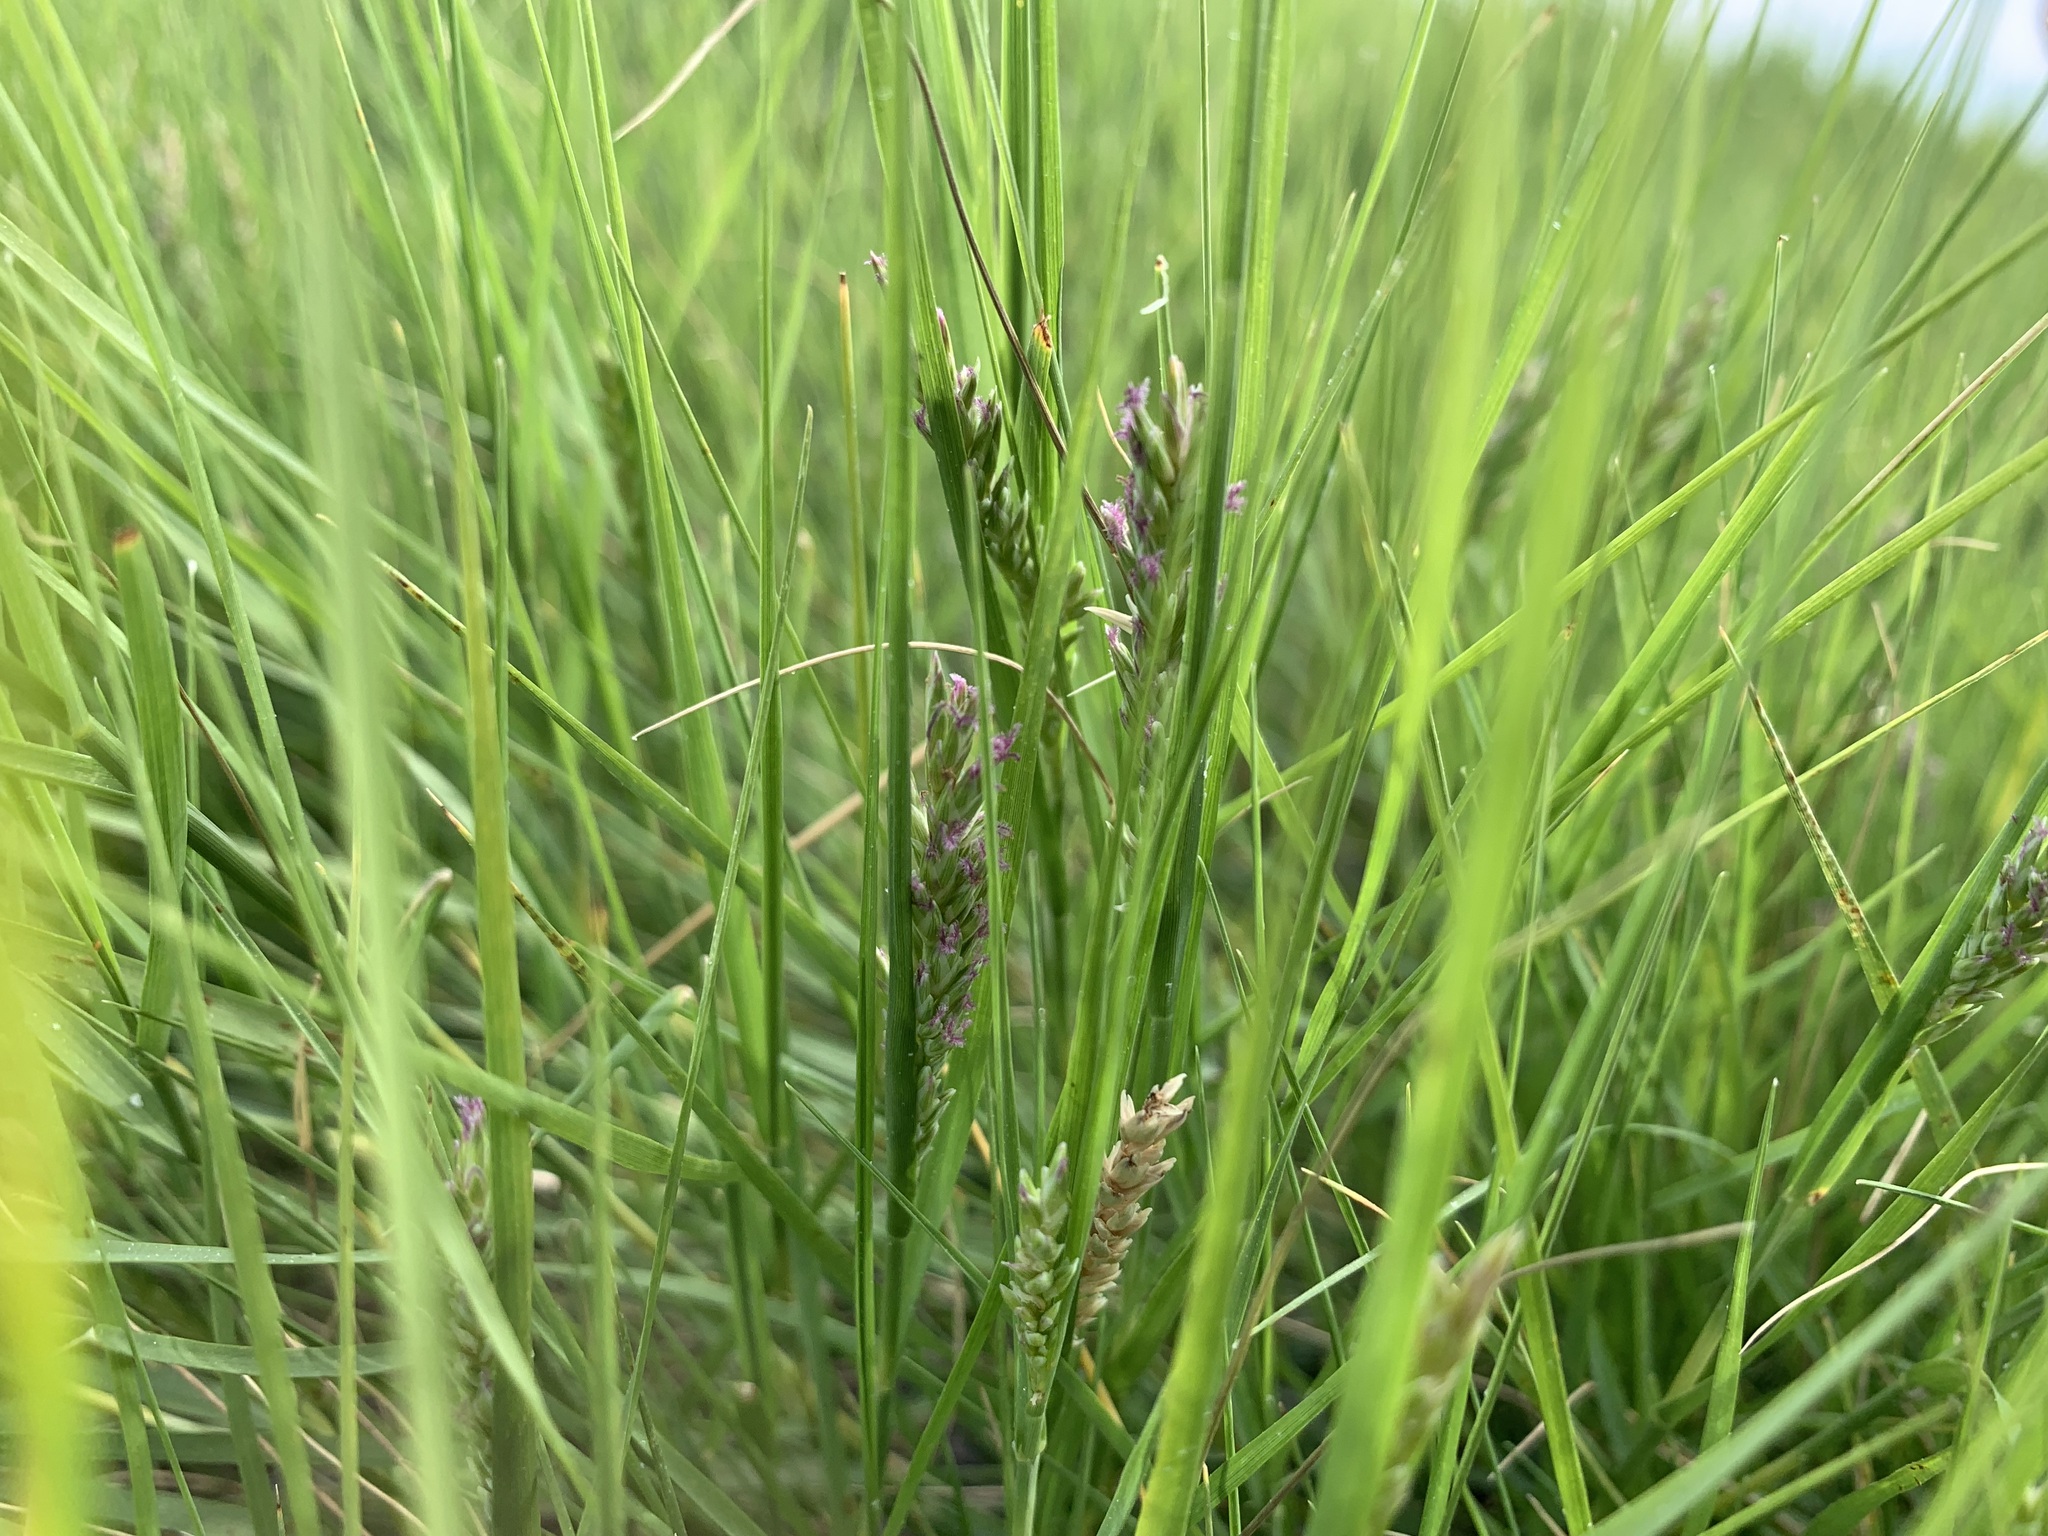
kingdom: Plantae
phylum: Tracheophyta
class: Liliopsida
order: Poales
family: Poaceae
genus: Distichlis
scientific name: Distichlis spicata
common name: Saltgrass
